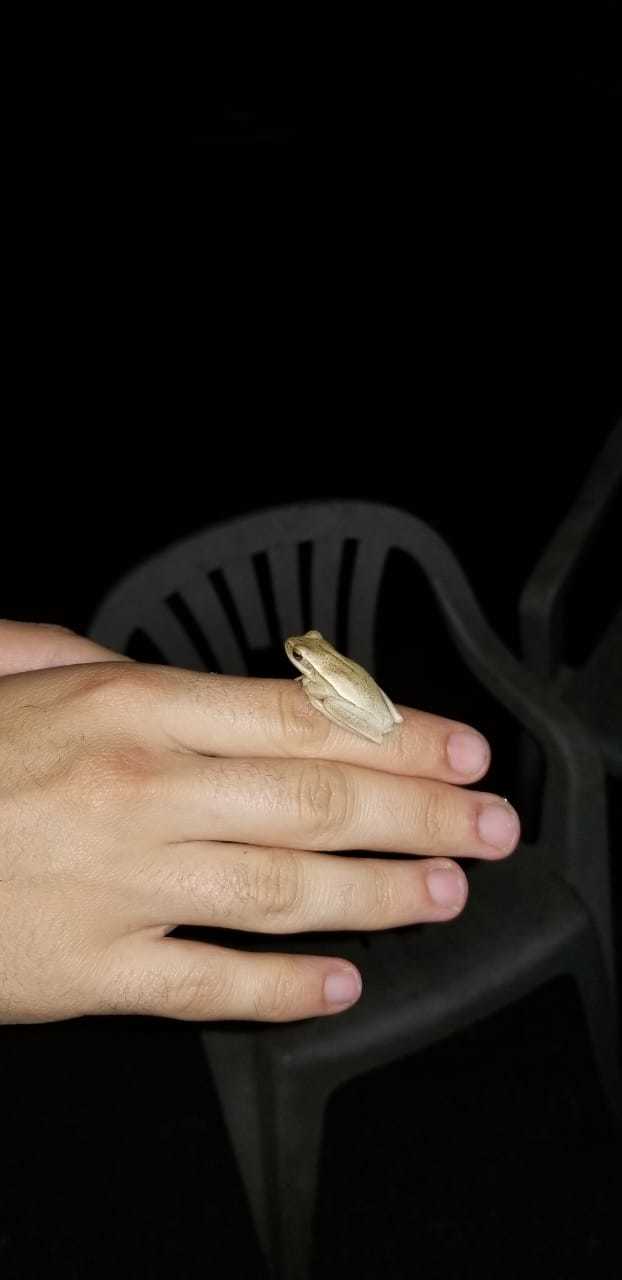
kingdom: Animalia
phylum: Chordata
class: Amphibia
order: Anura
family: Hylidae
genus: Boana
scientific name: Boana pulchella
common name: Montevideo treefrog
